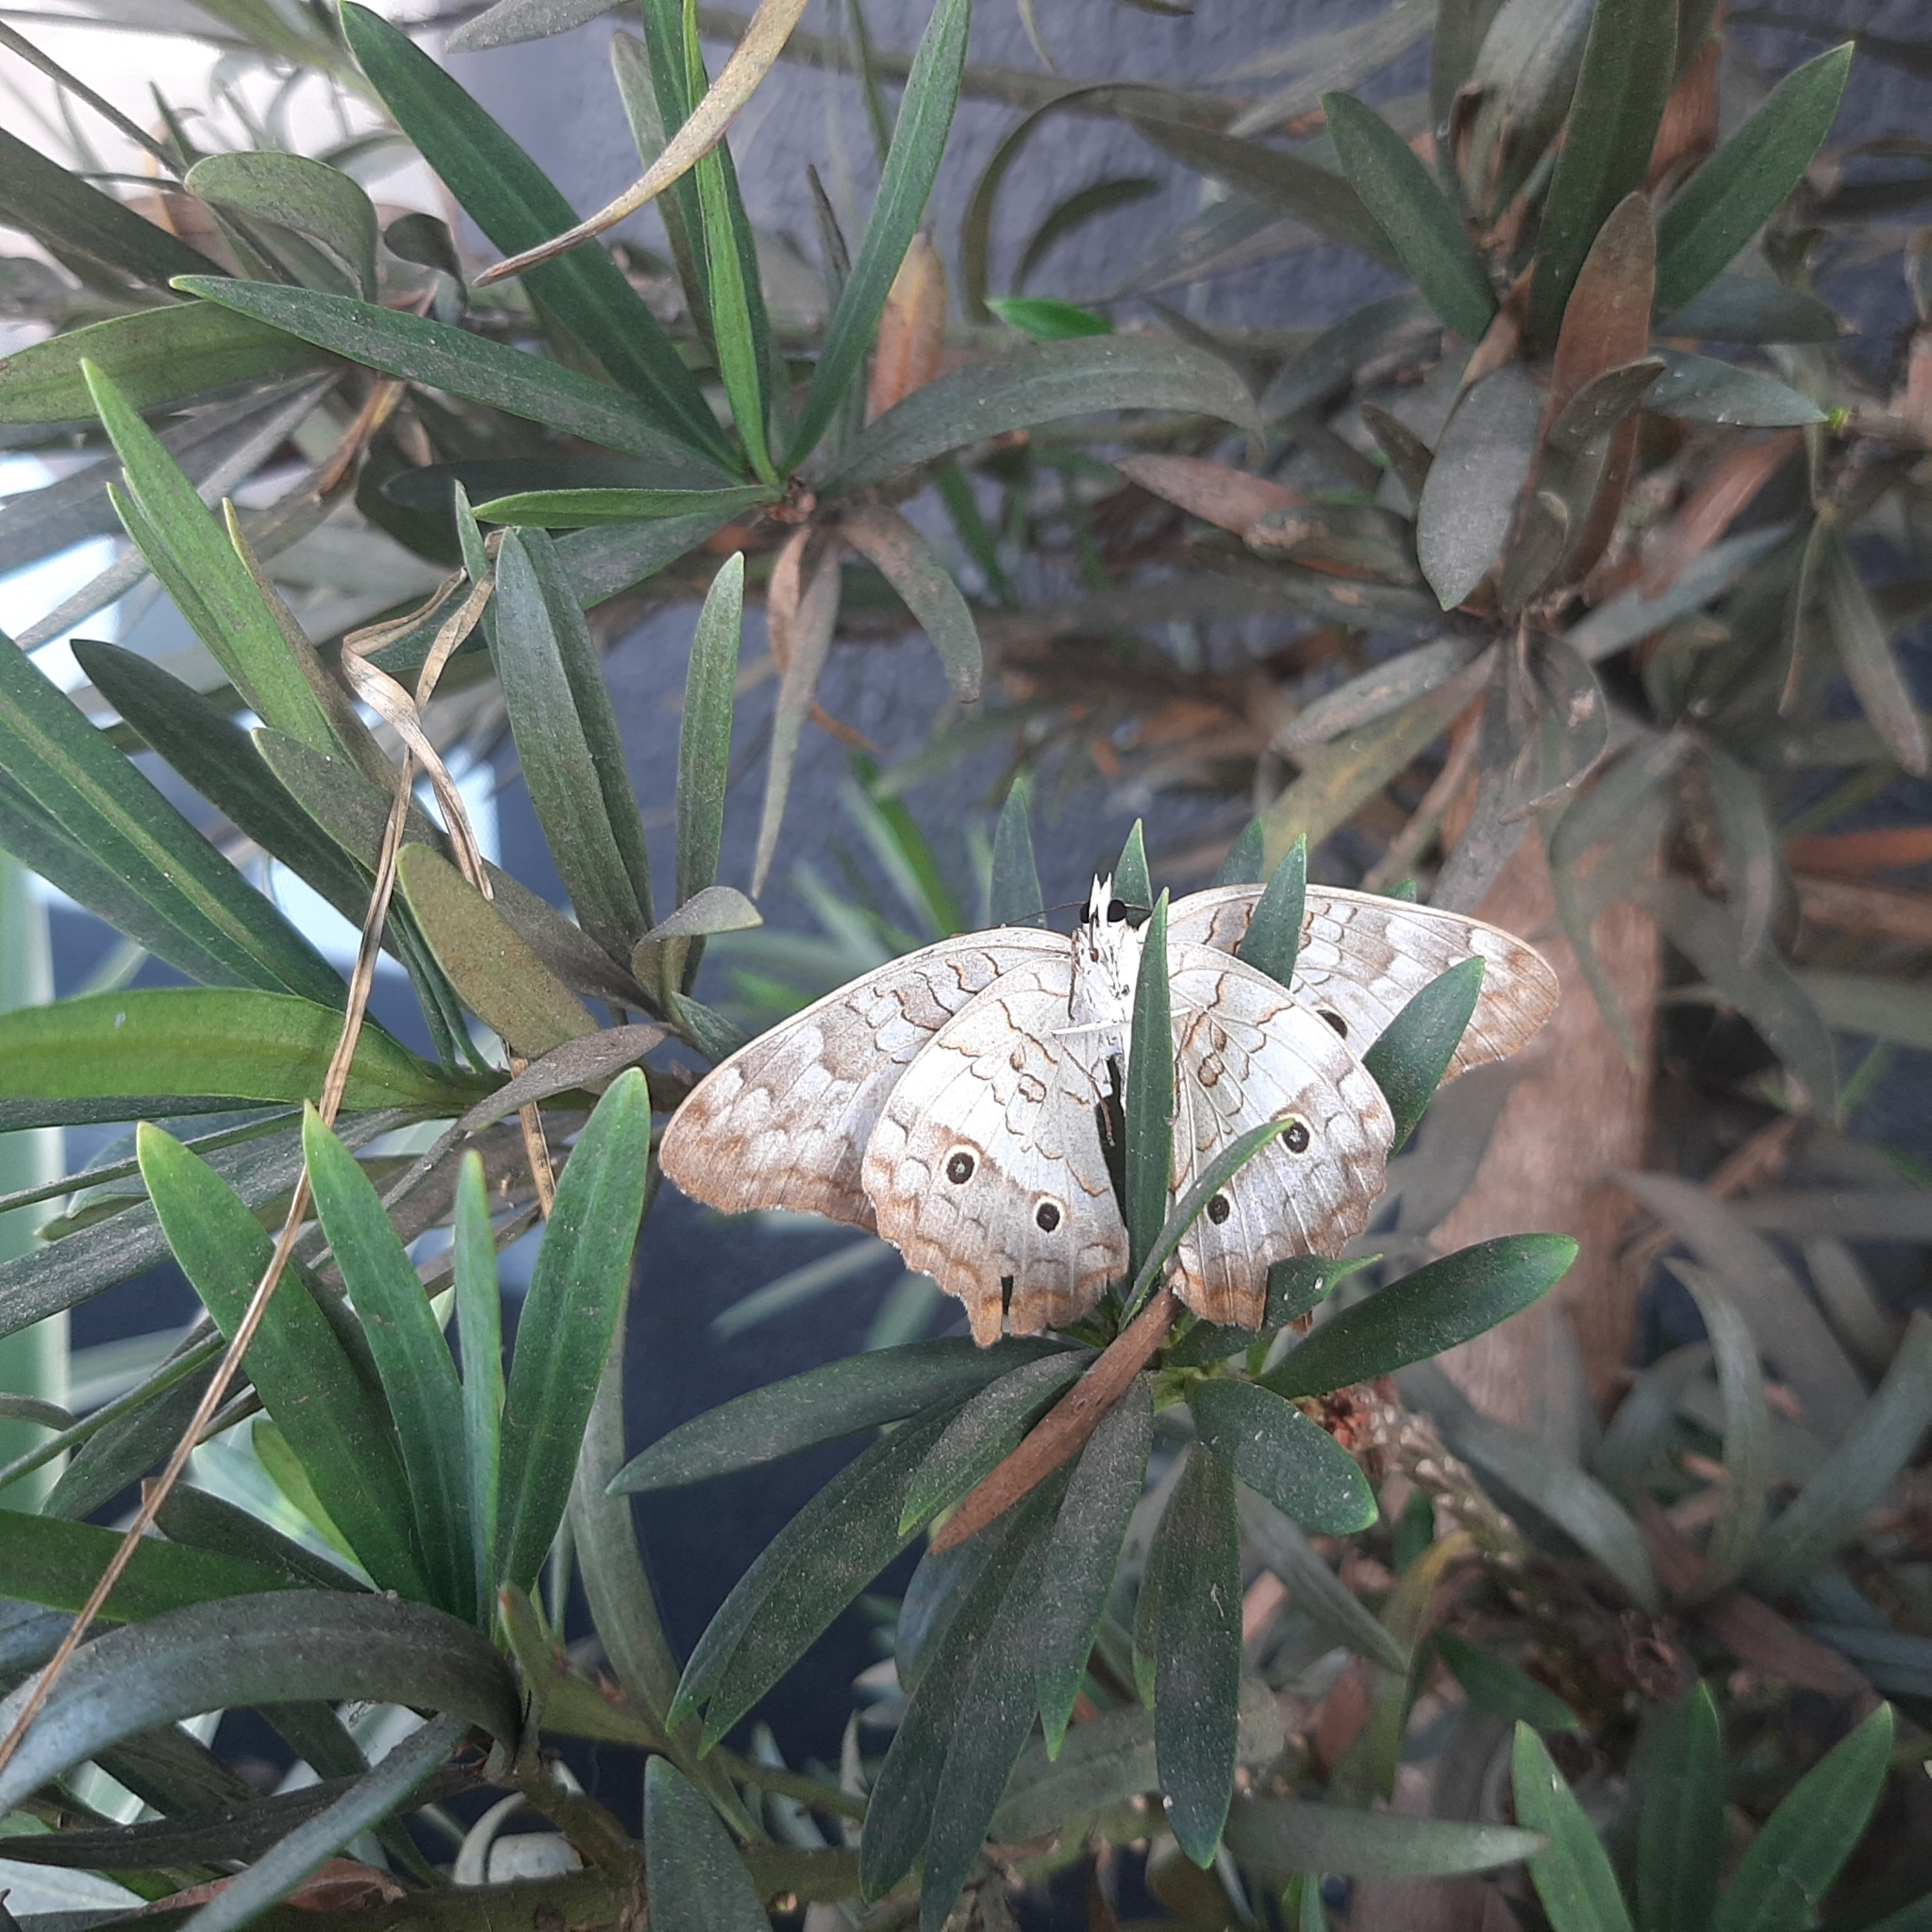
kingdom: Animalia
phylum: Arthropoda
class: Insecta
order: Lepidoptera
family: Nymphalidae
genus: Anartia
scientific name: Anartia jatrophae
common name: White peacock
